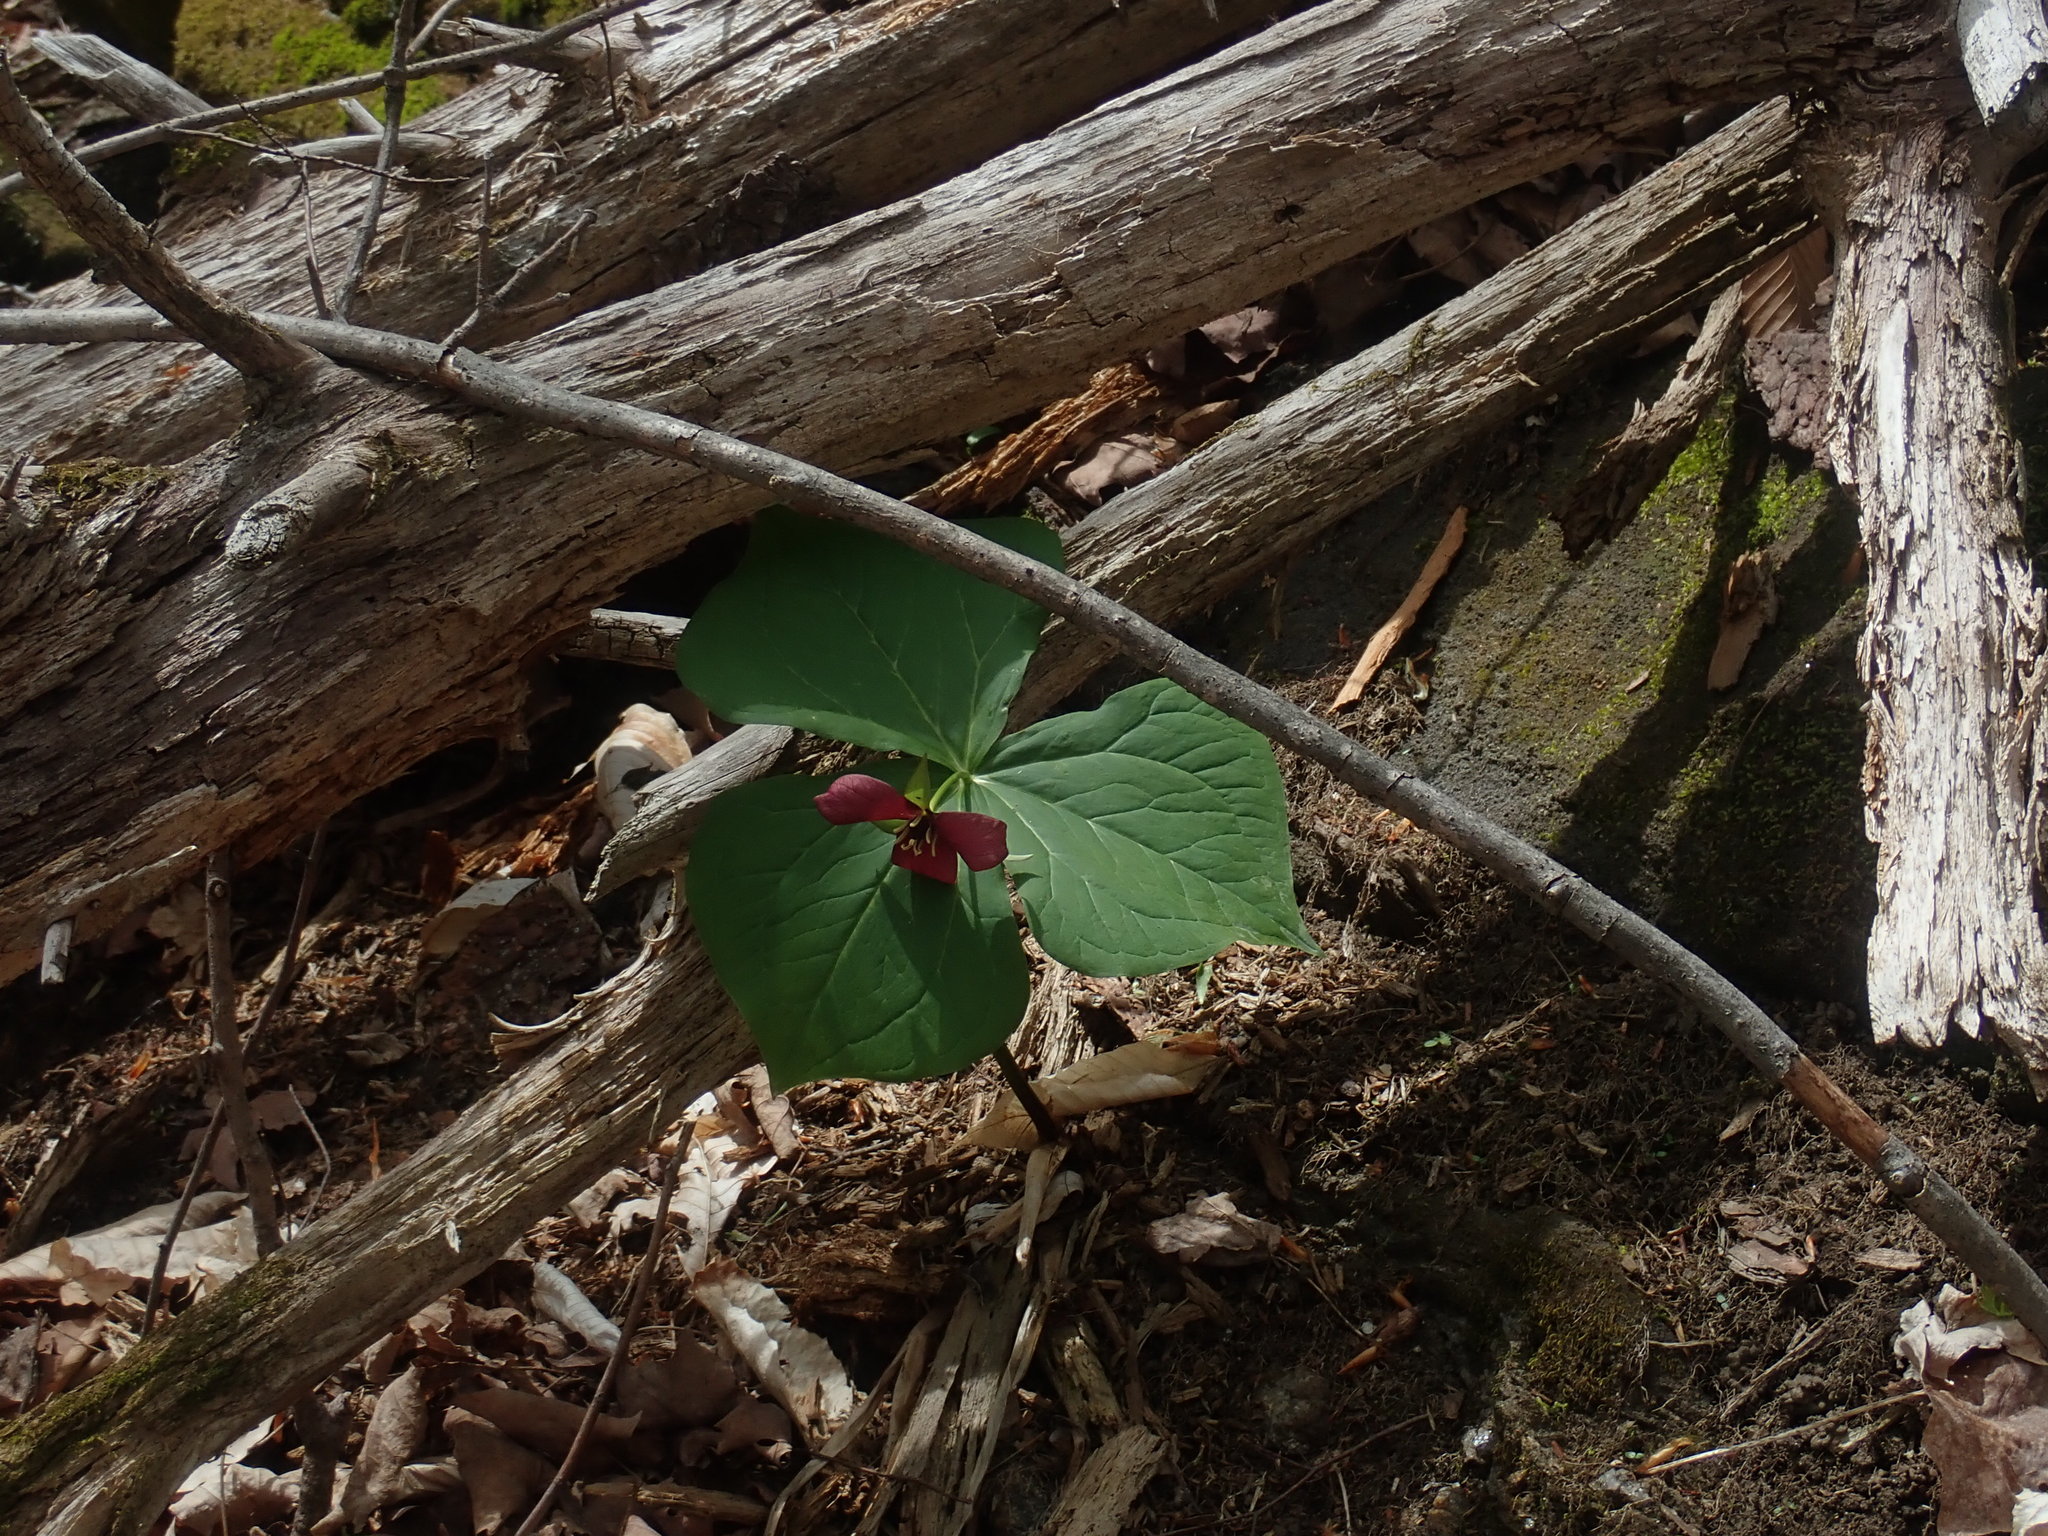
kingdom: Plantae
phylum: Tracheophyta
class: Liliopsida
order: Liliales
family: Melanthiaceae
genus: Trillium
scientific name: Trillium erectum
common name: Purple trillium
